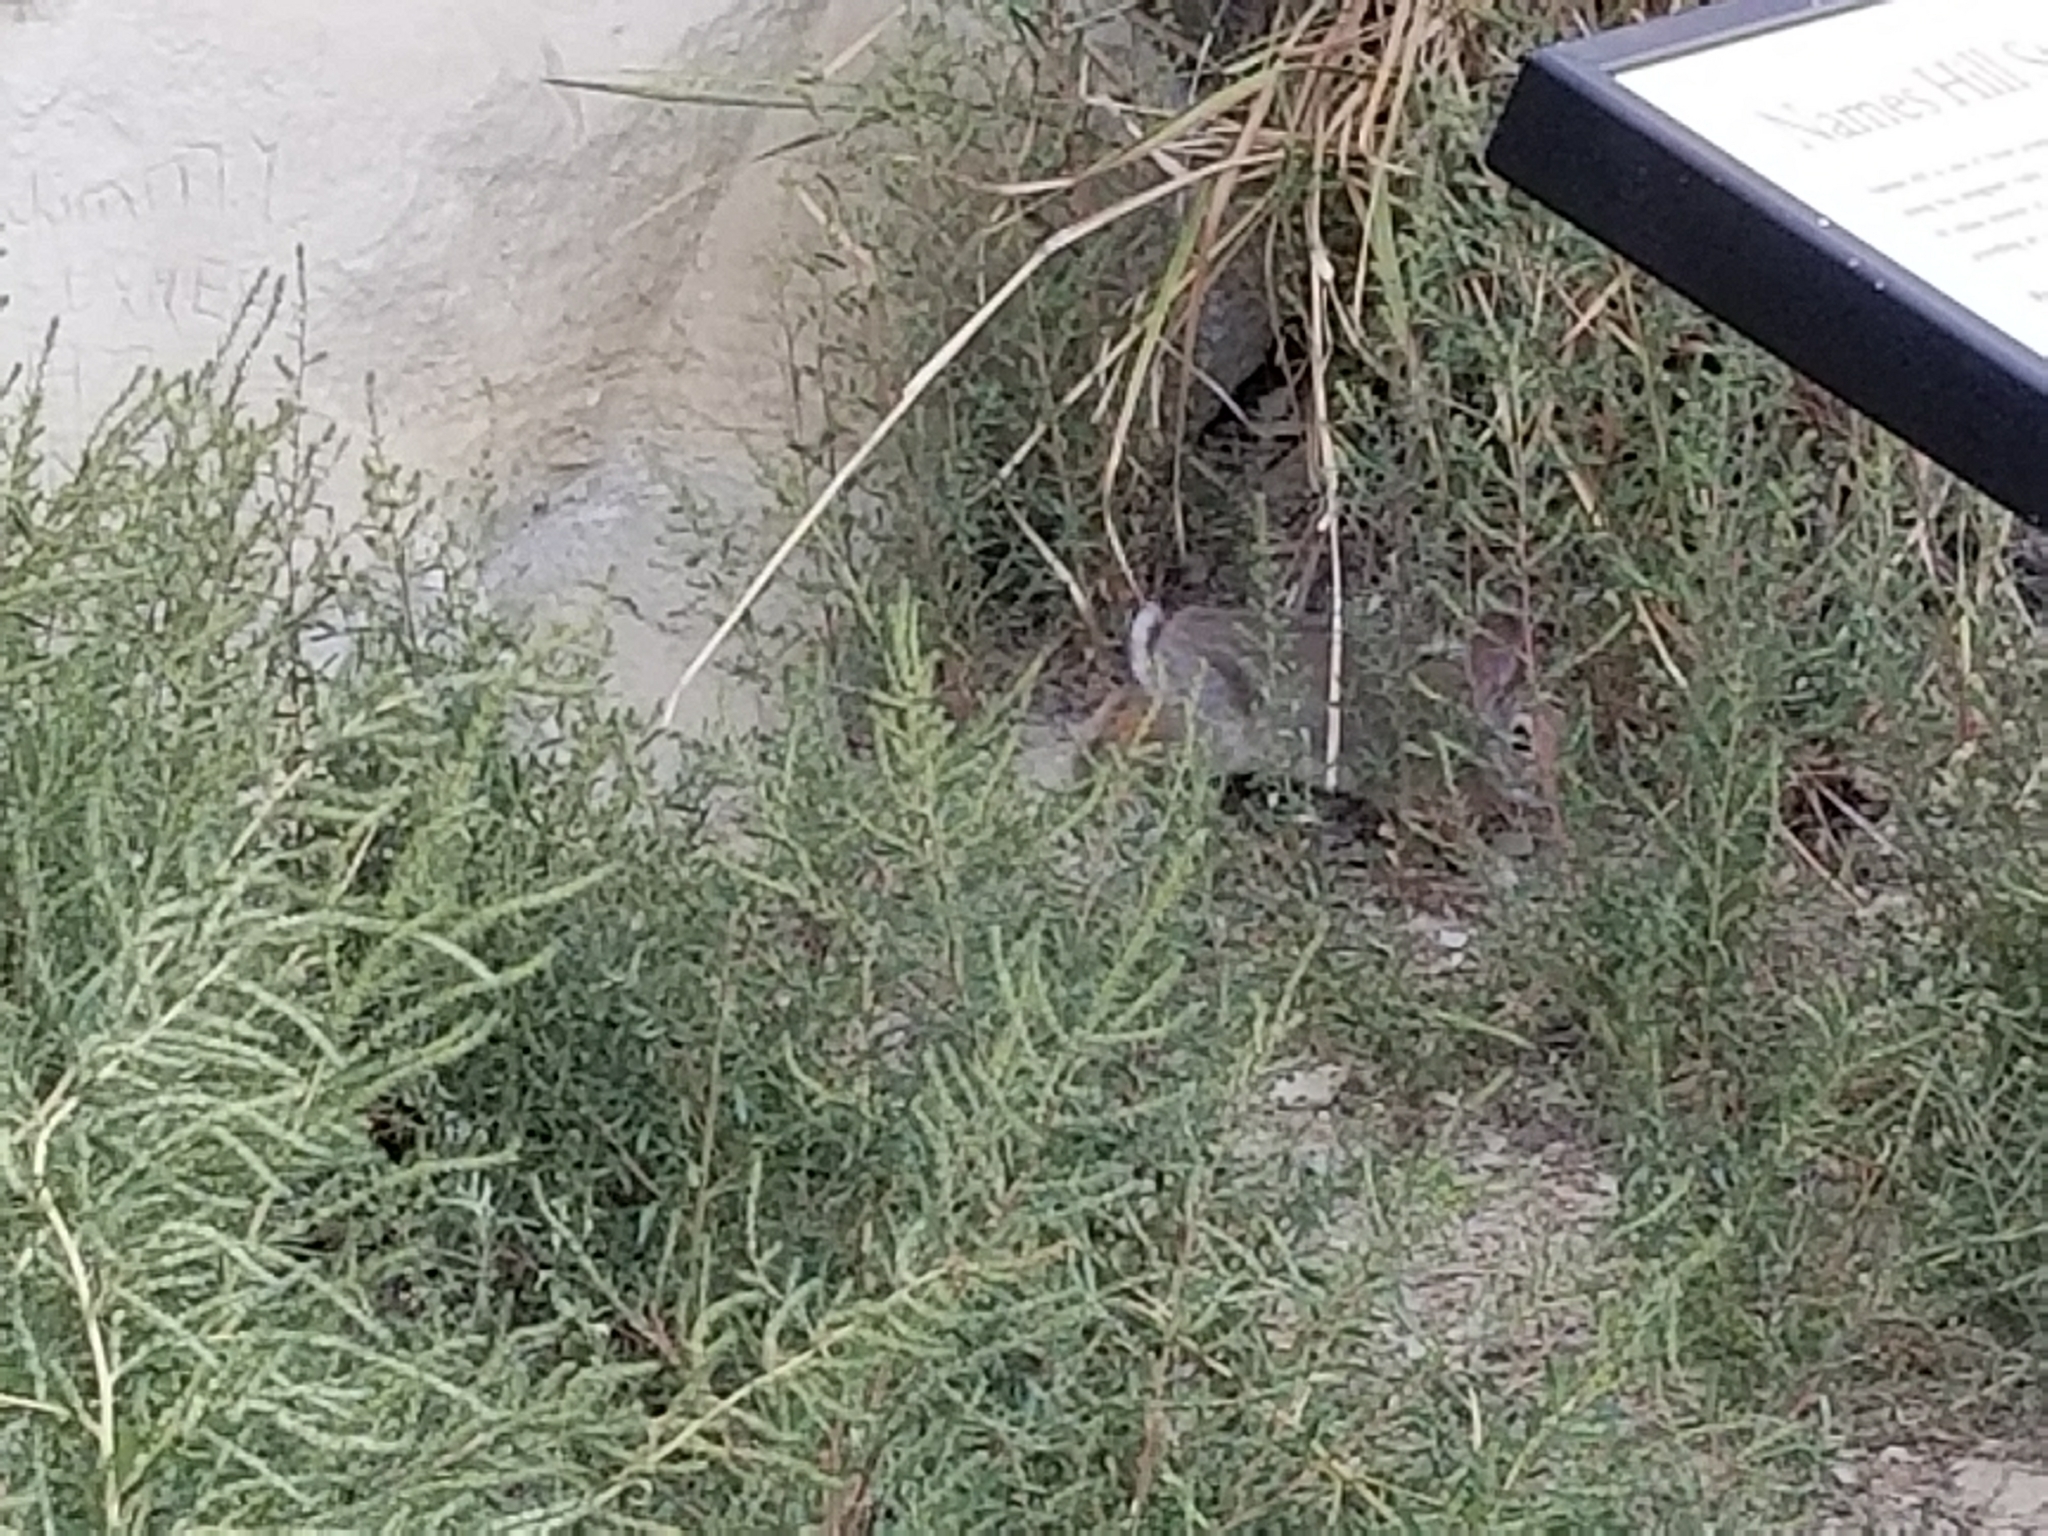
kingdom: Animalia
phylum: Chordata
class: Mammalia
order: Lagomorpha
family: Leporidae
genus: Sylvilagus
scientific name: Sylvilagus audubonii
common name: Desert cottontail
